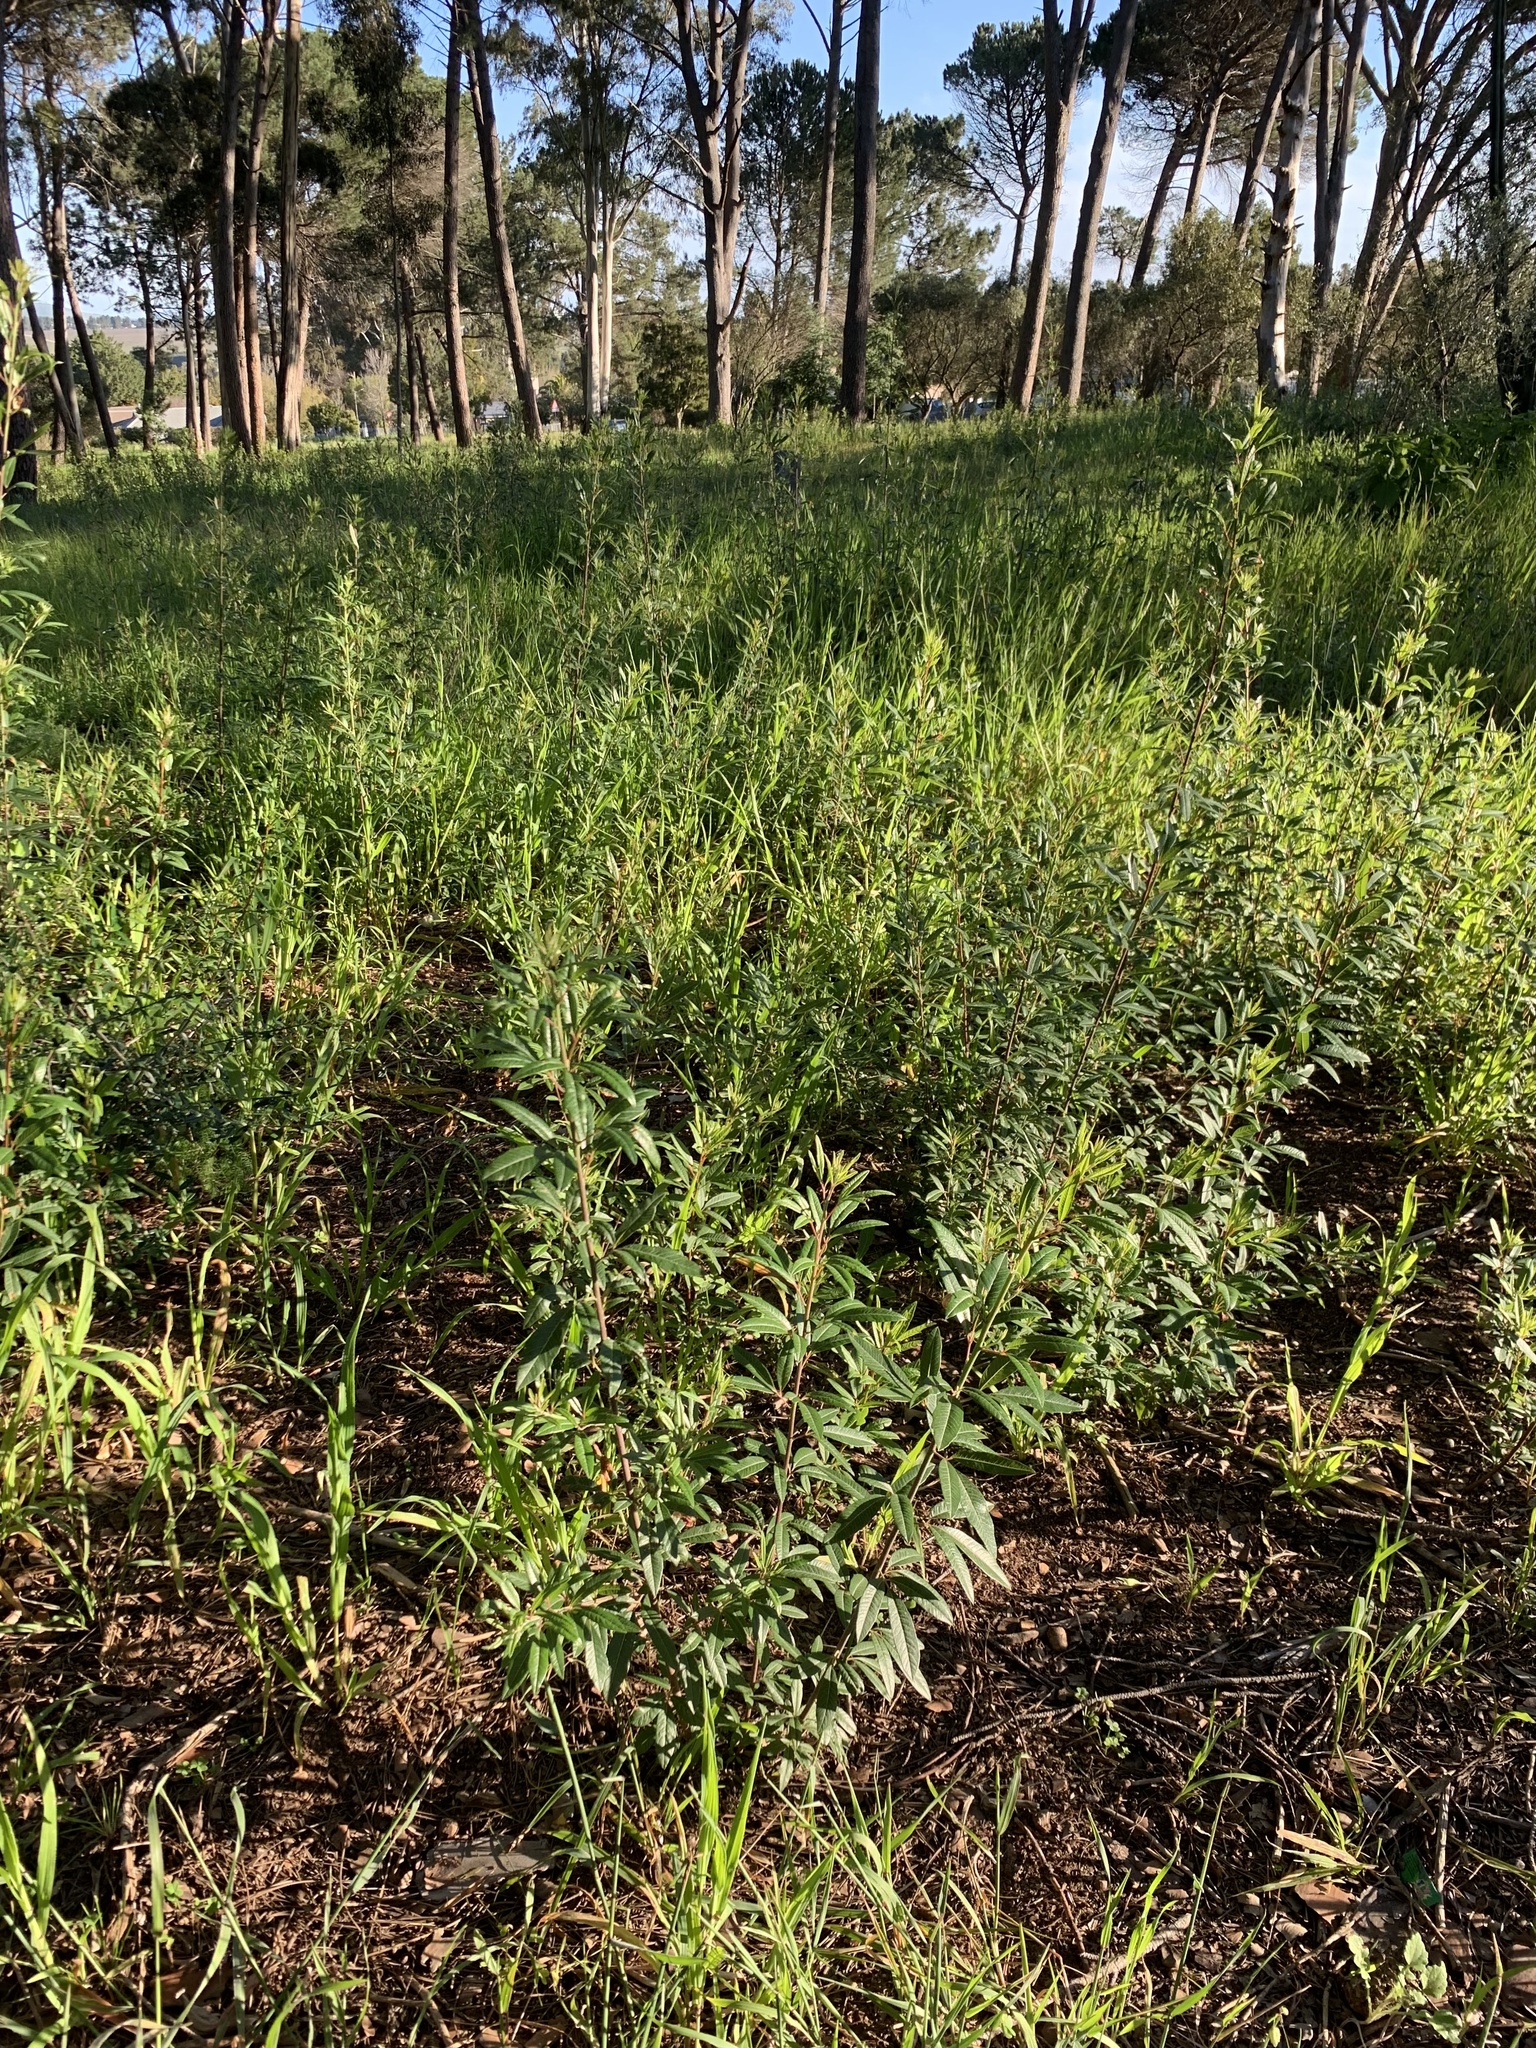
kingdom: Plantae
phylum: Tracheophyta
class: Magnoliopsida
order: Sapindales
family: Anacardiaceae
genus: Searsia
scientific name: Searsia angustifolia
